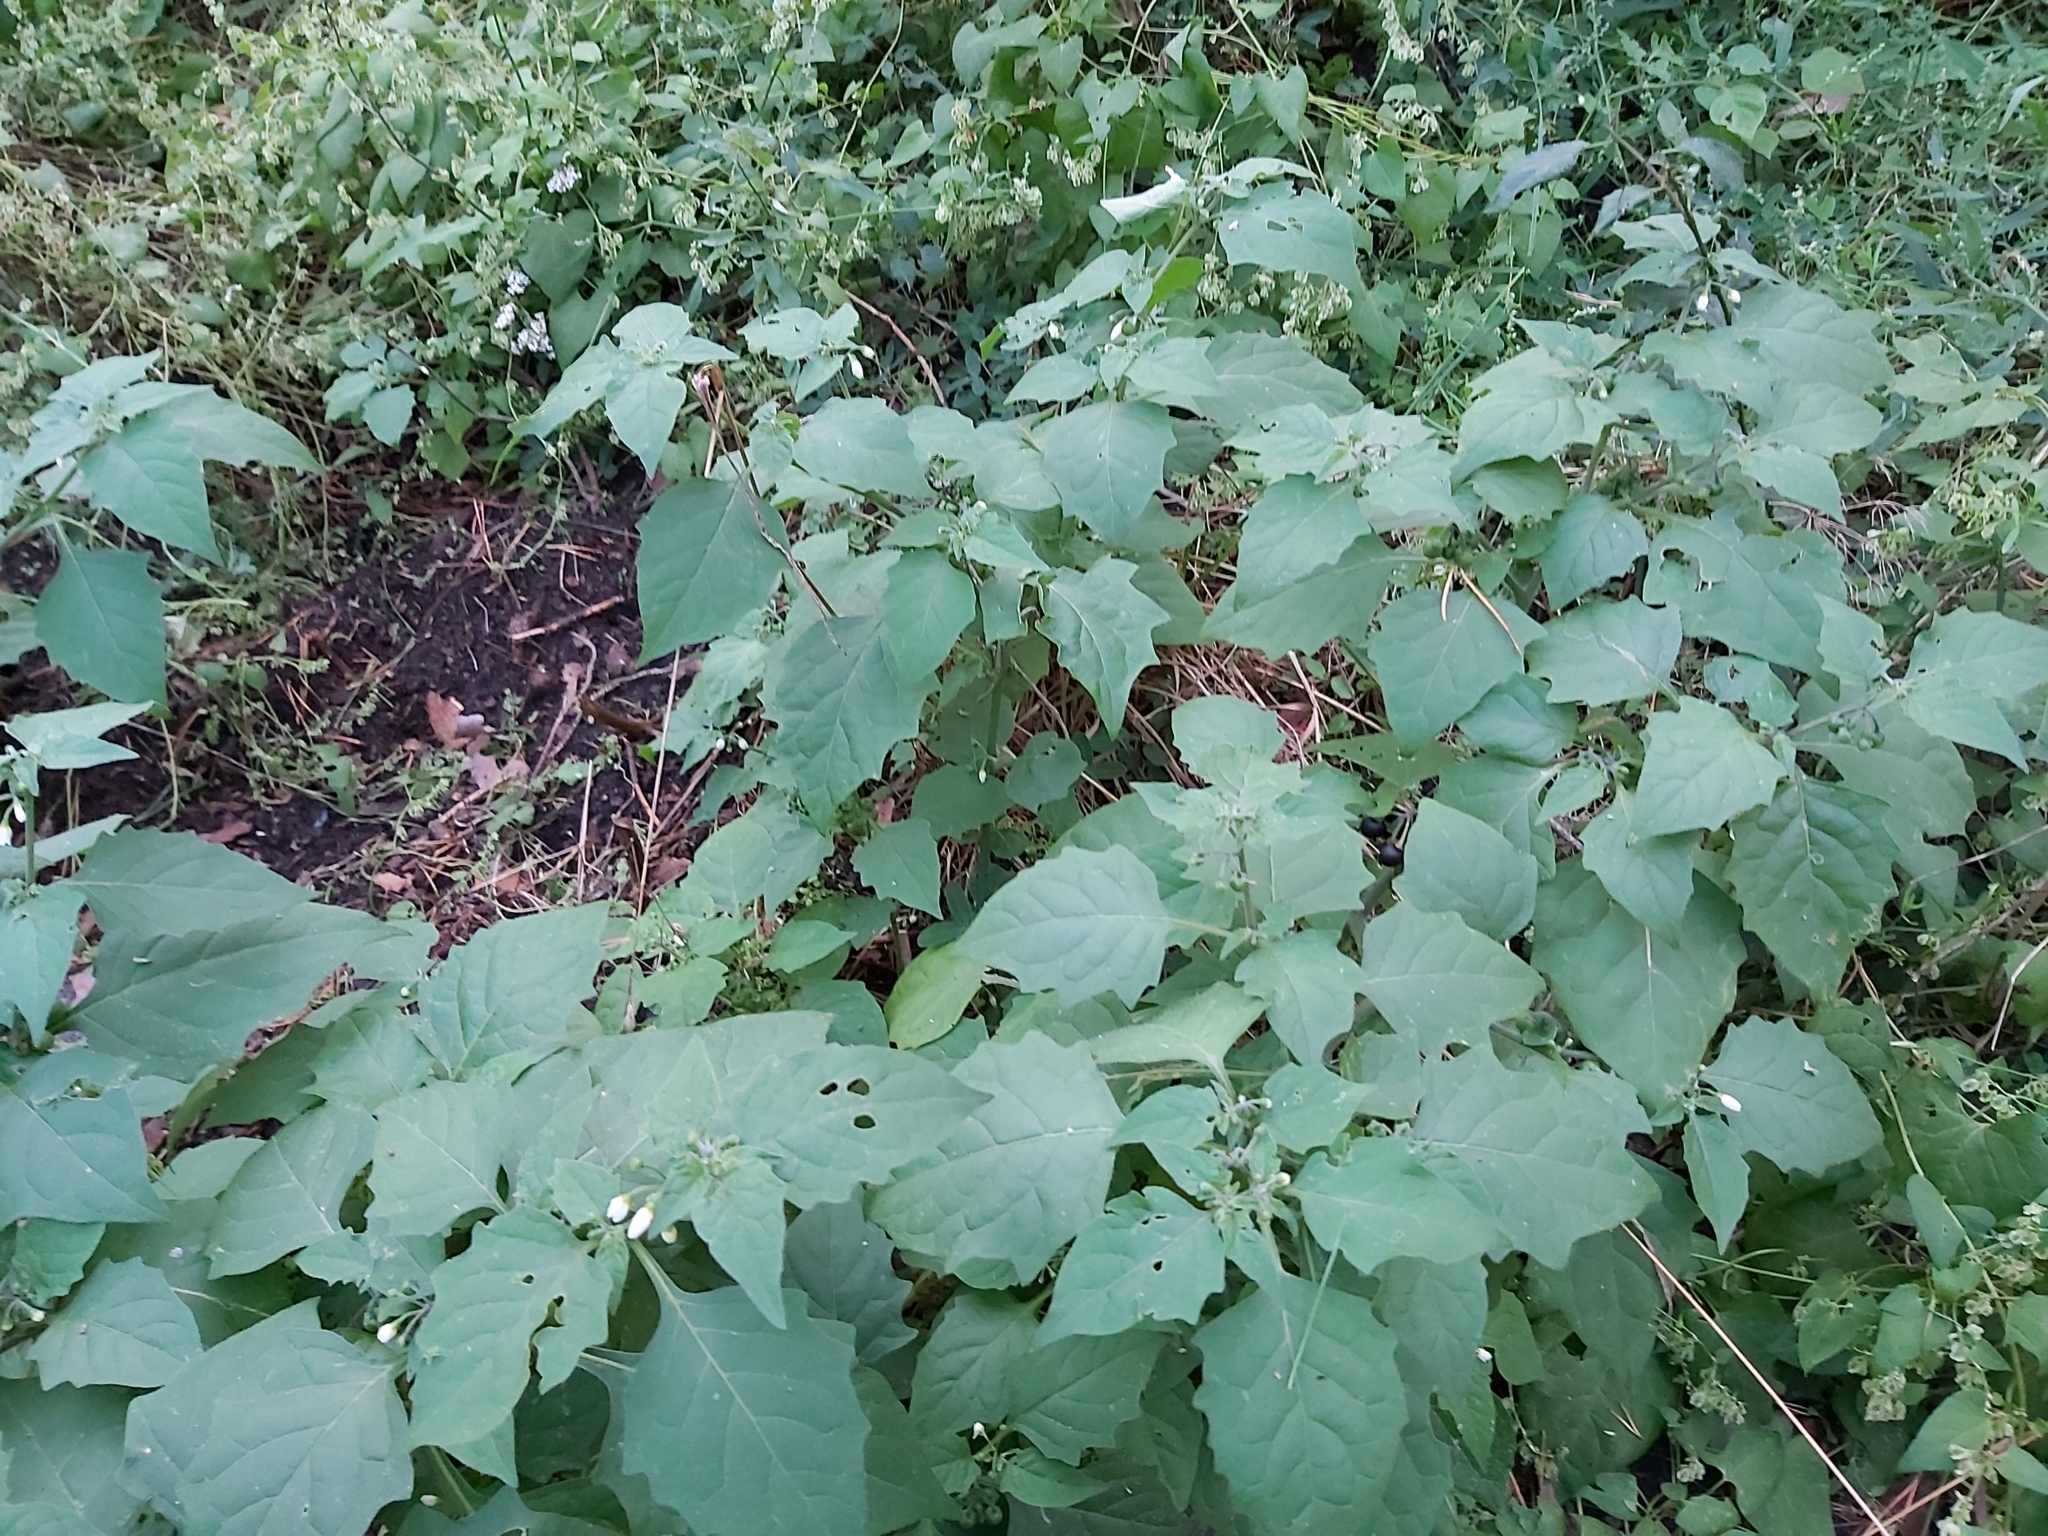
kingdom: Plantae
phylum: Tracheophyta
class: Magnoliopsida
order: Solanales
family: Solanaceae
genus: Solanum
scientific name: Solanum nigrum
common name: Black nightshade
